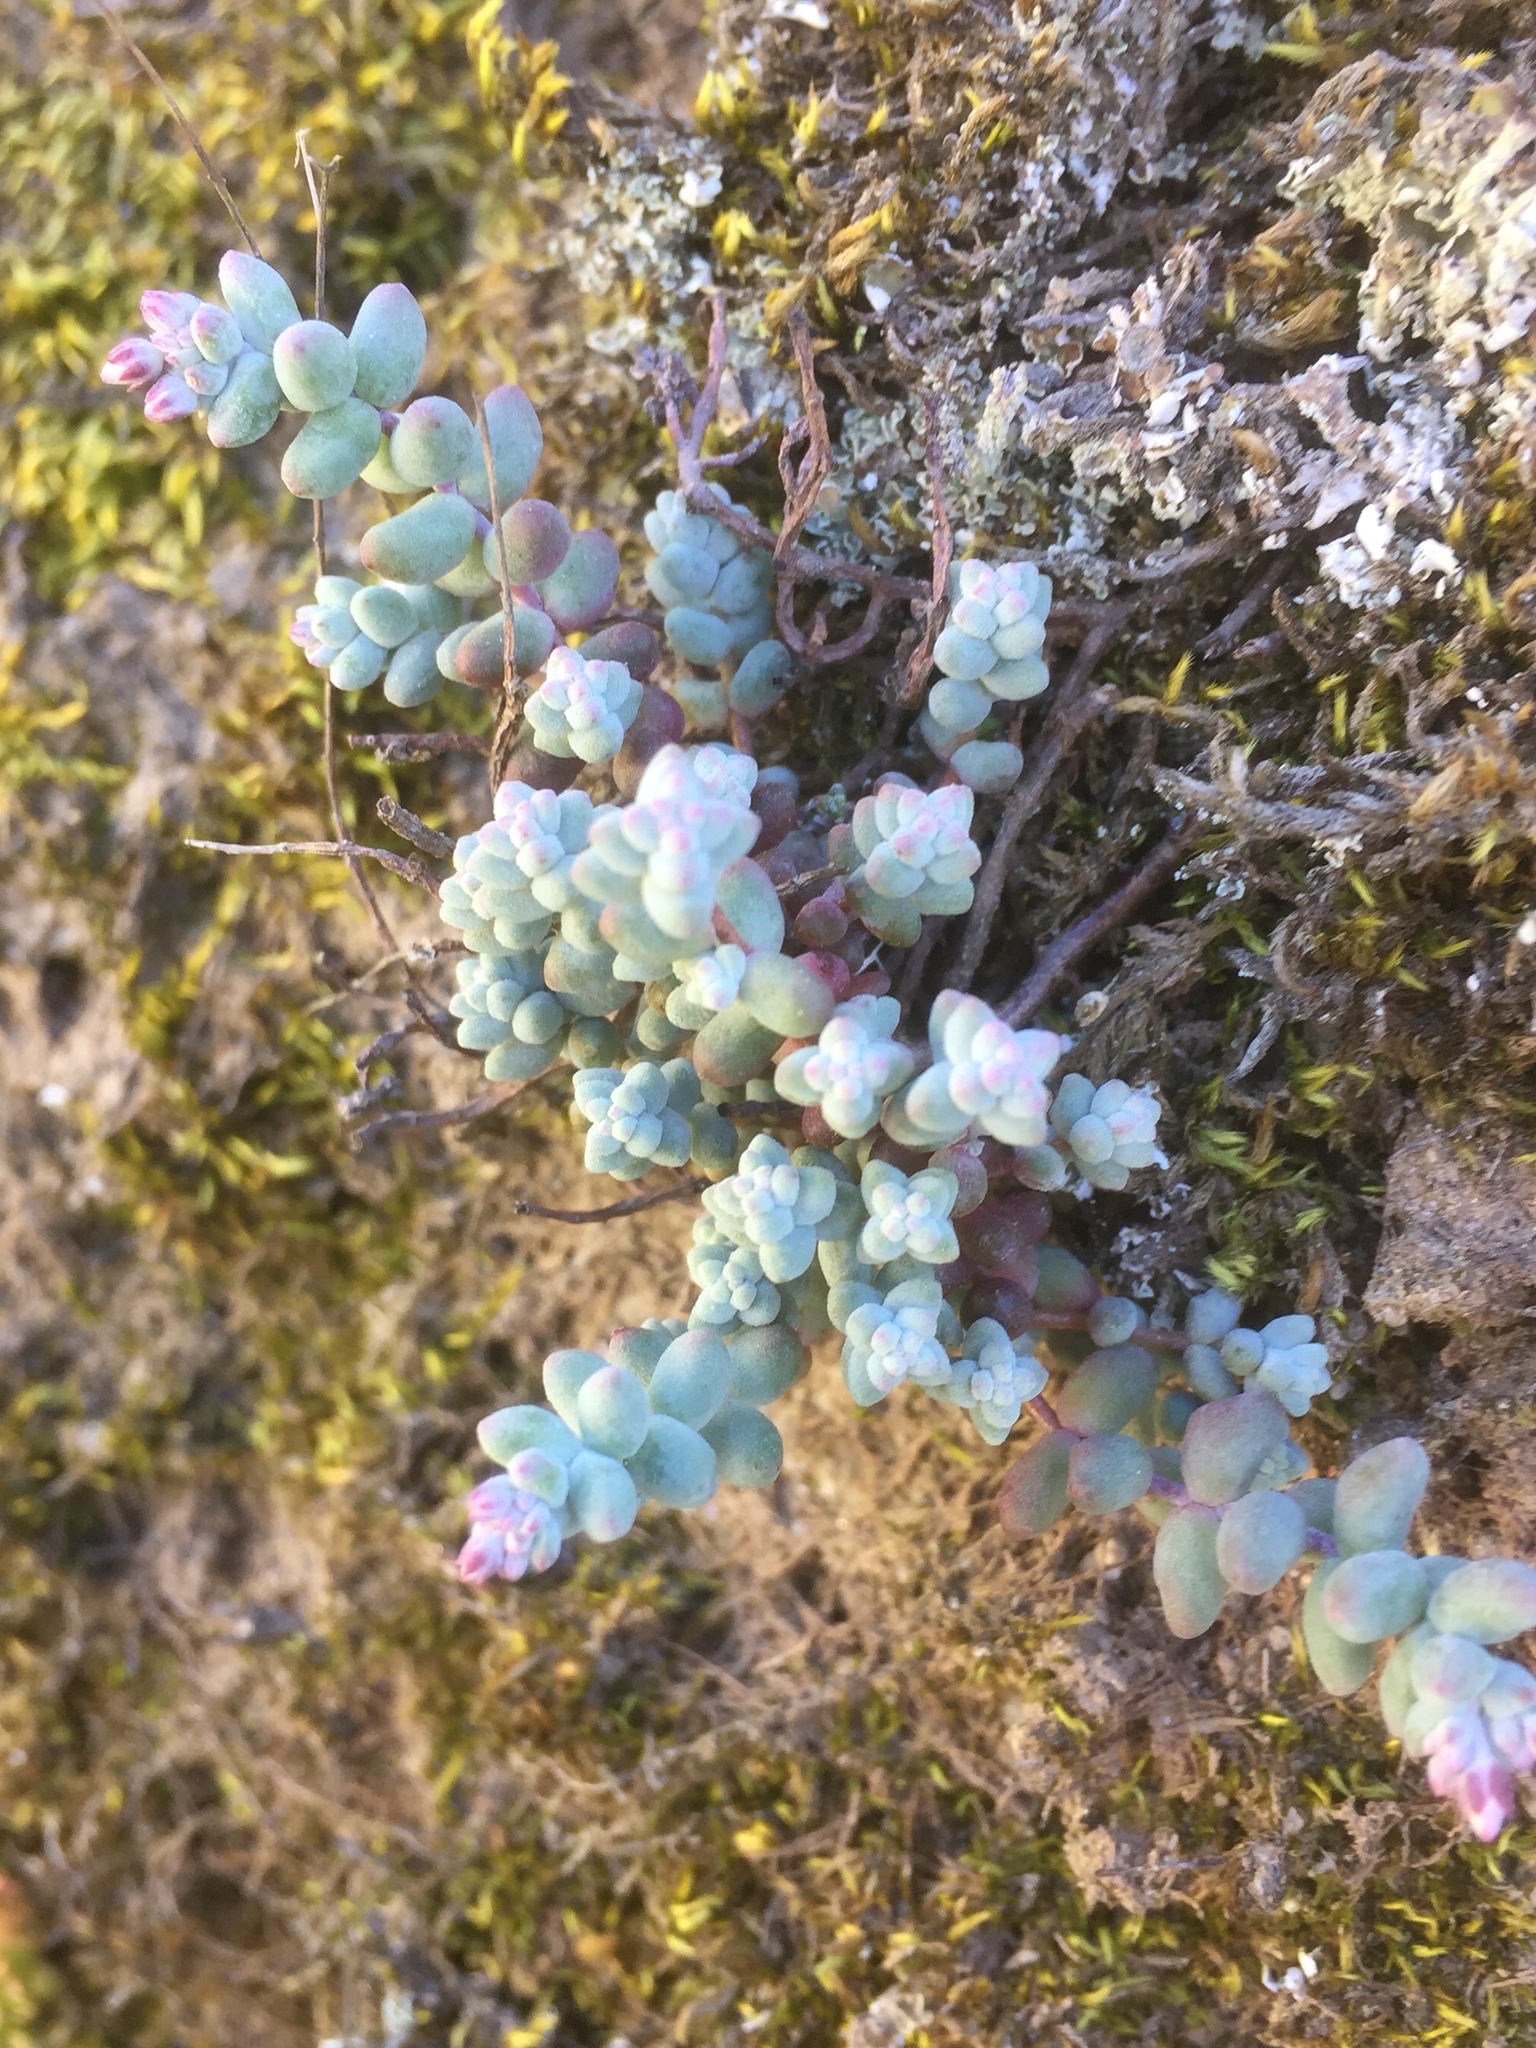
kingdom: Plantae
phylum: Tracheophyta
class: Magnoliopsida
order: Saxifragales
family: Crassulaceae
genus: Sedum
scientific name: Sedum brevifolium
